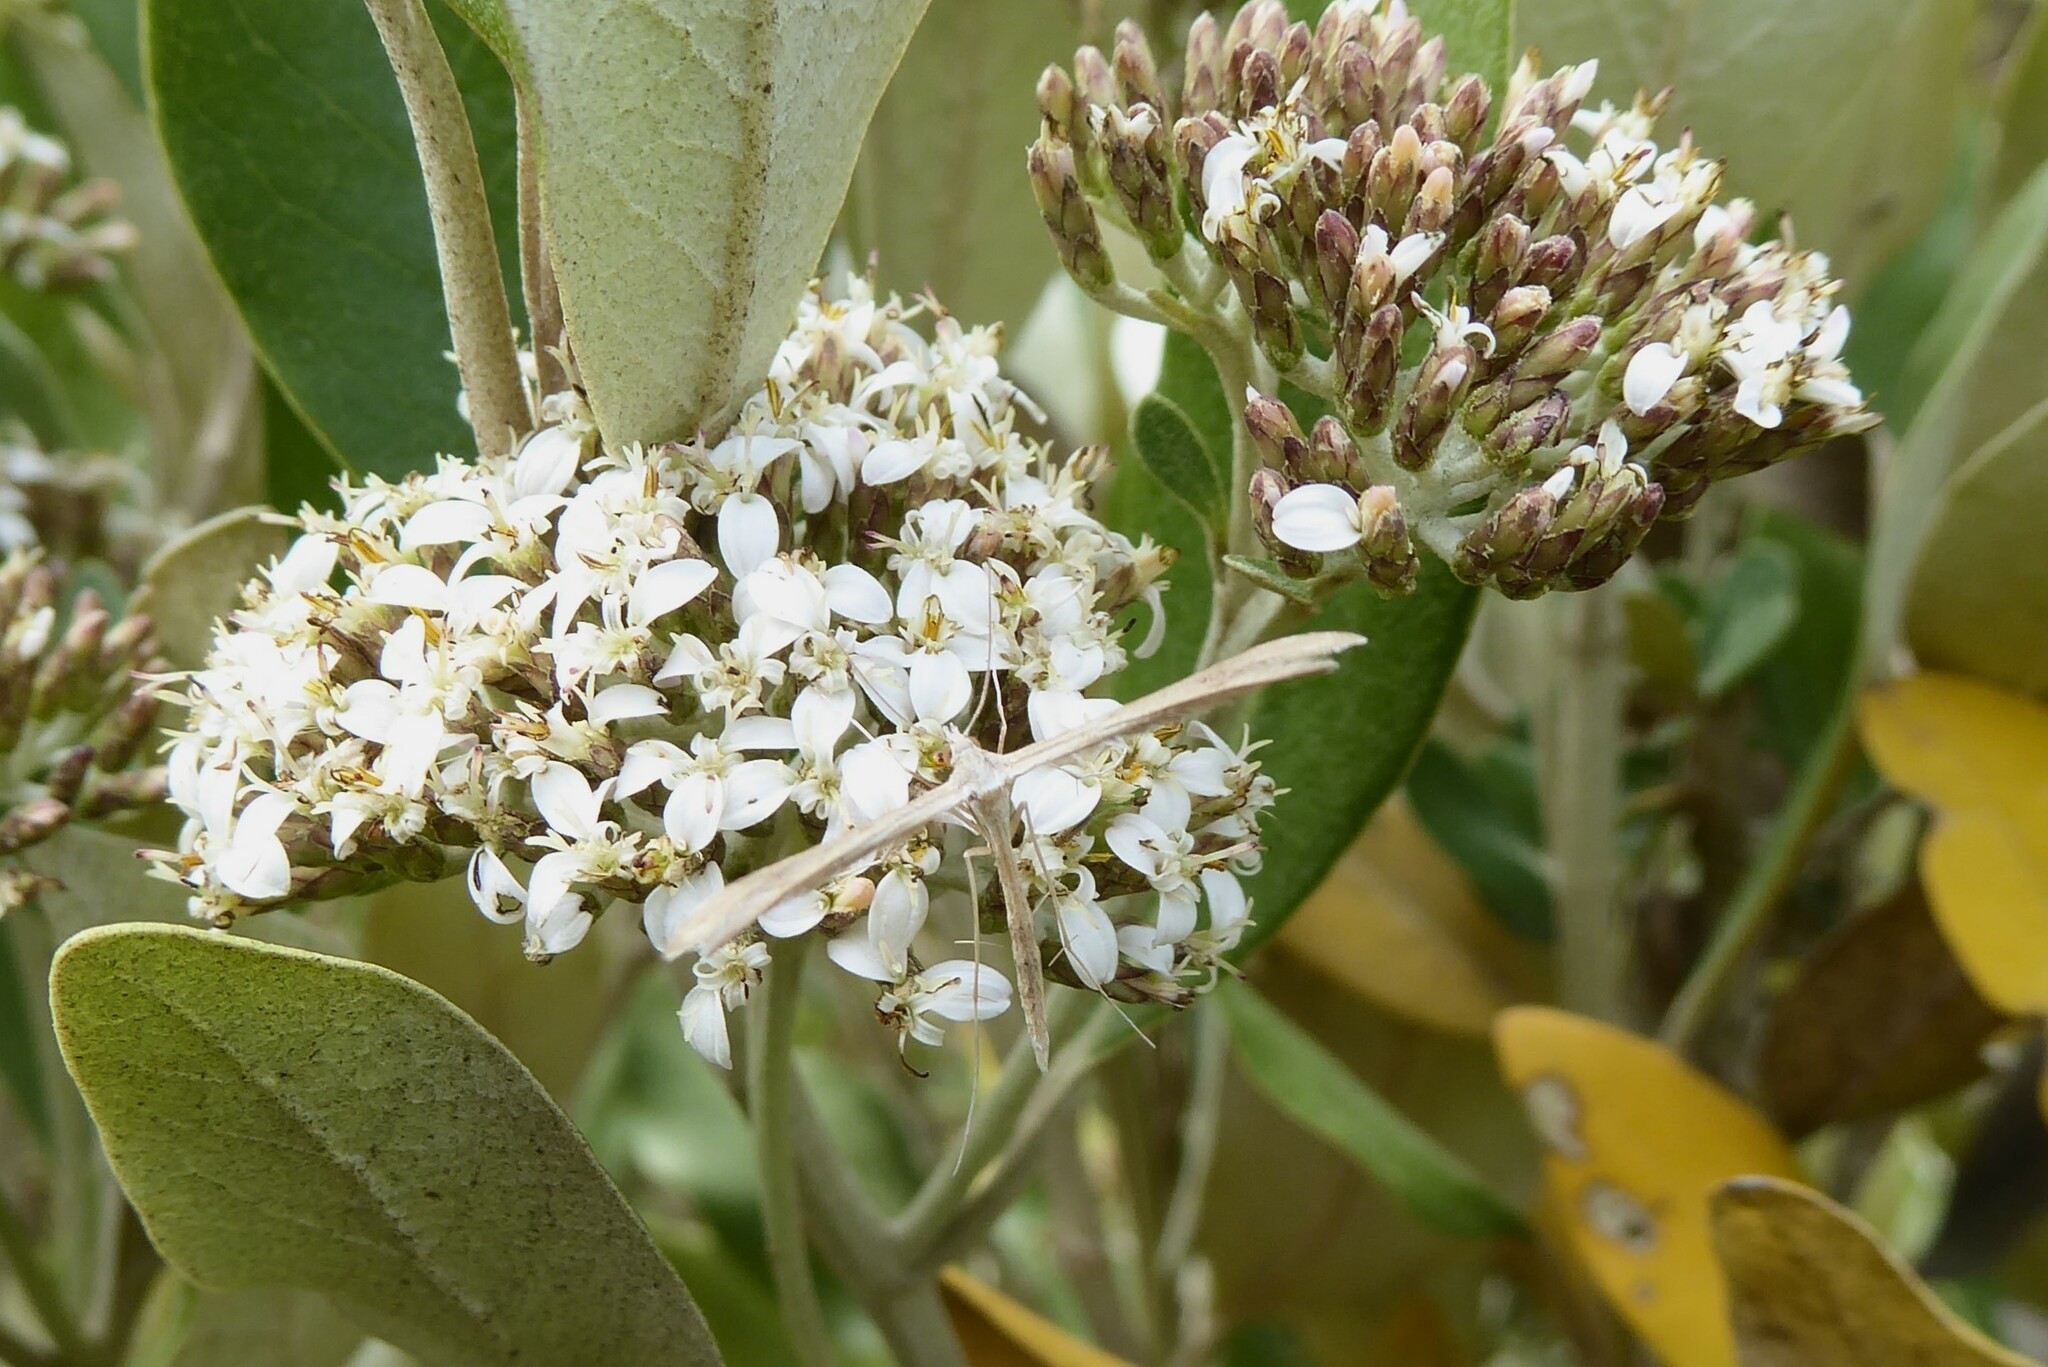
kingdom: Animalia
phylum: Arthropoda
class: Insecta
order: Lepidoptera
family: Pterophoridae
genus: Stenoptilia
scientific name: Stenoptilia zophodactylus
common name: Dowdy plume
